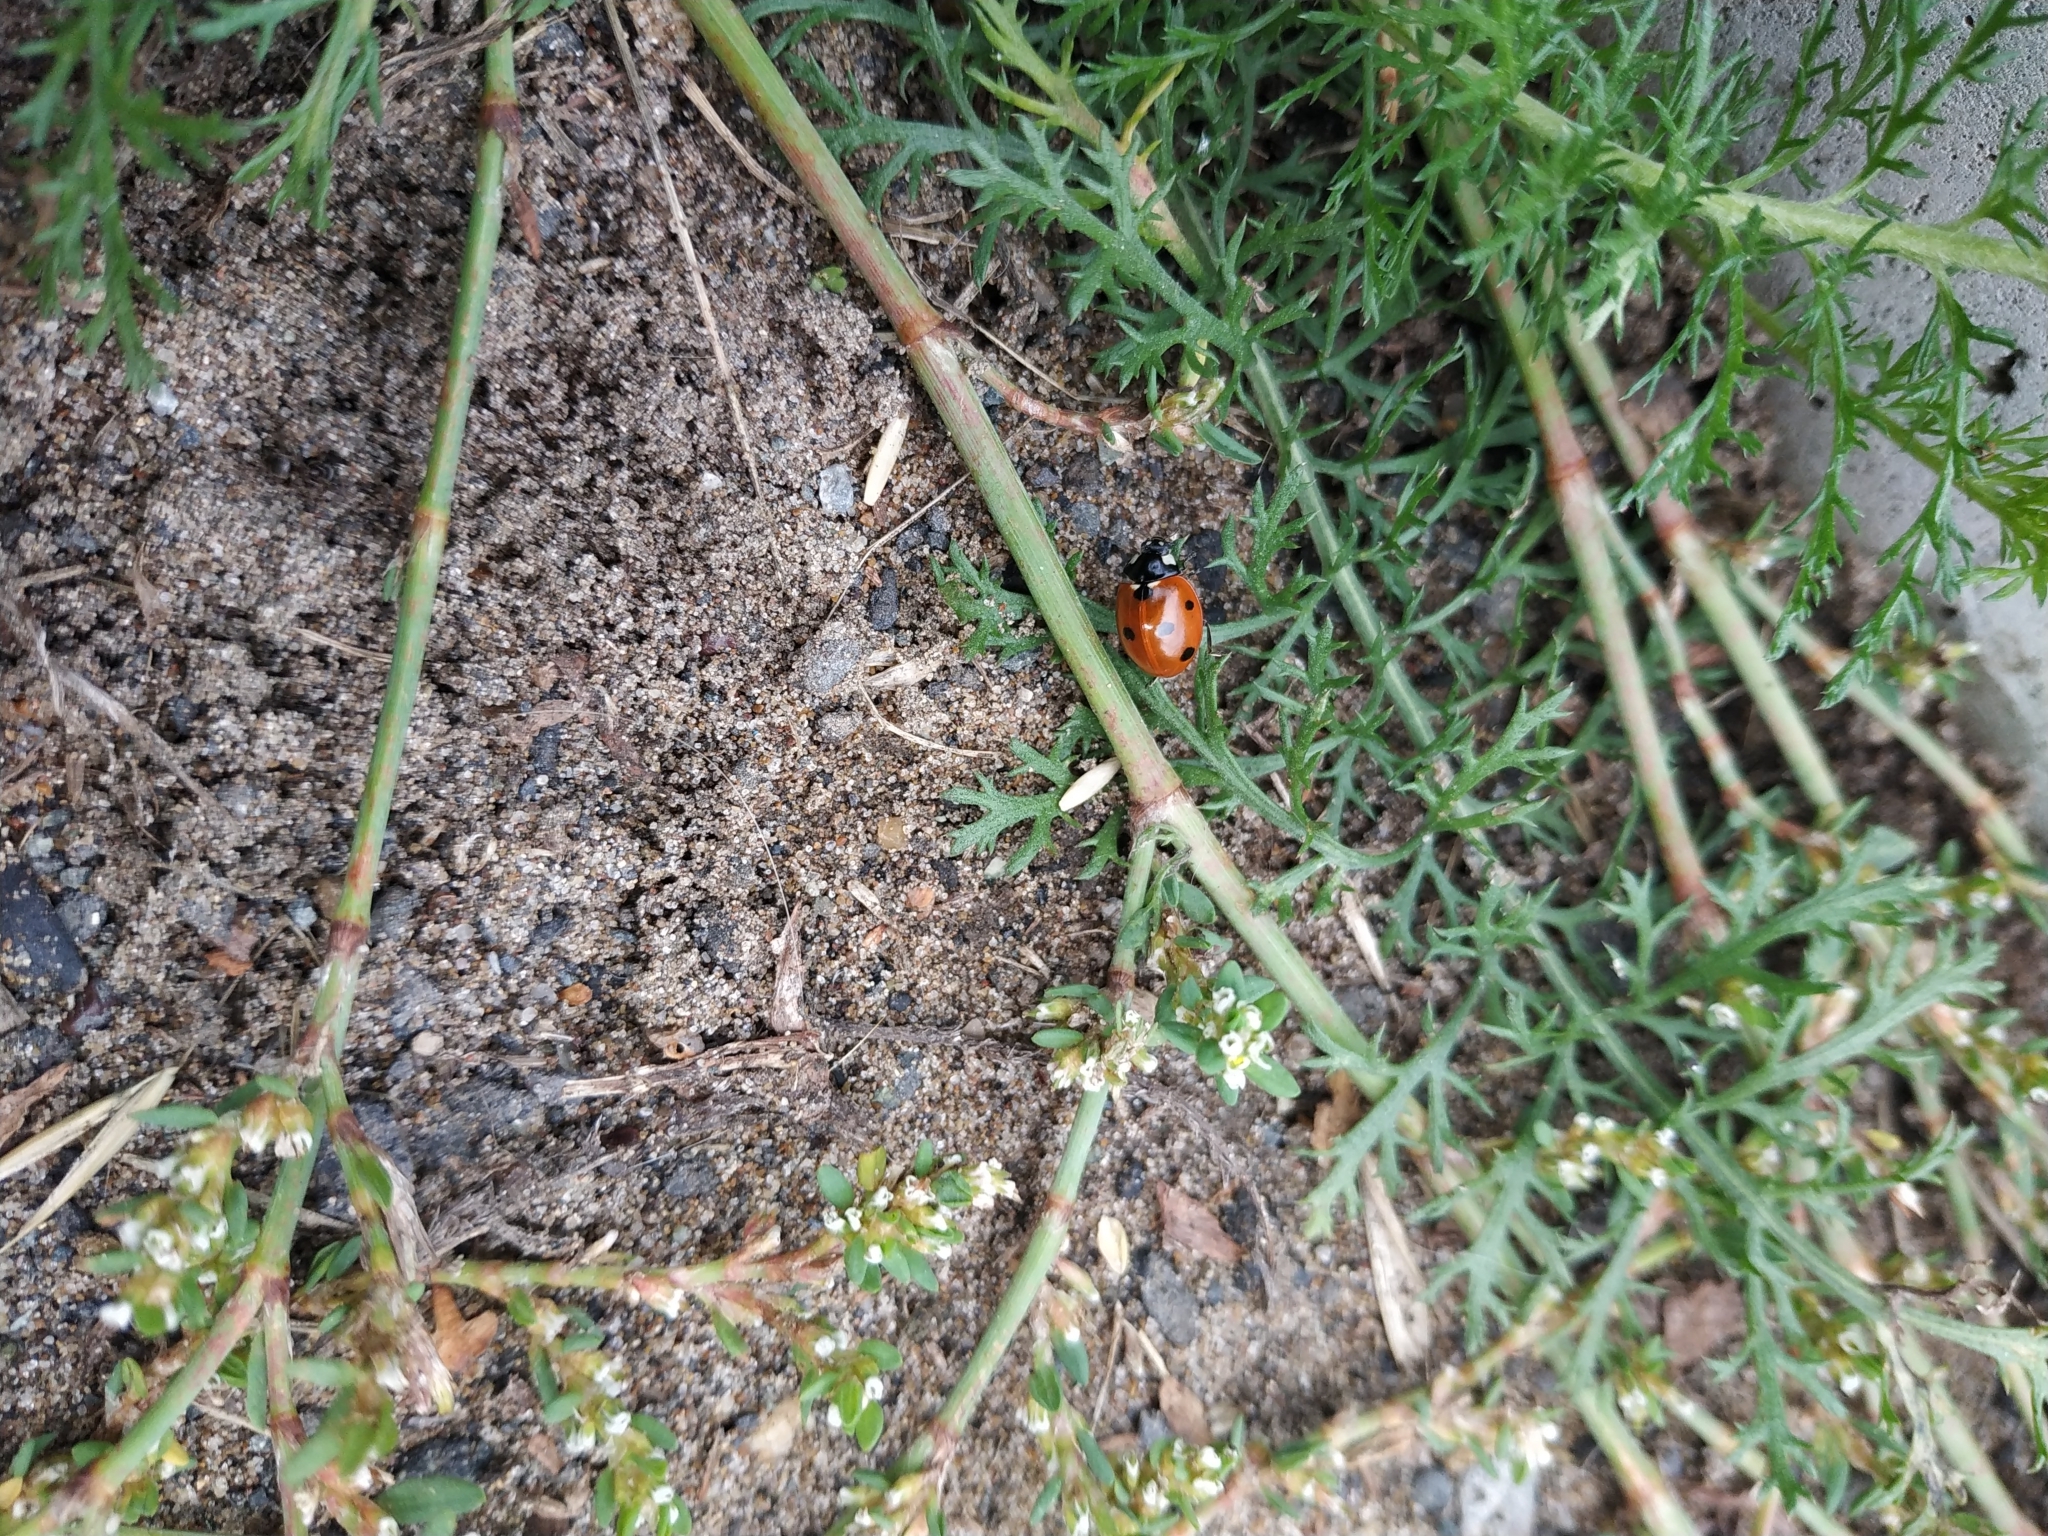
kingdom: Animalia
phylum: Arthropoda
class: Insecta
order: Coleoptera
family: Coccinellidae
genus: Coccinella
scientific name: Coccinella septempunctata
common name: Sevenspotted lady beetle
